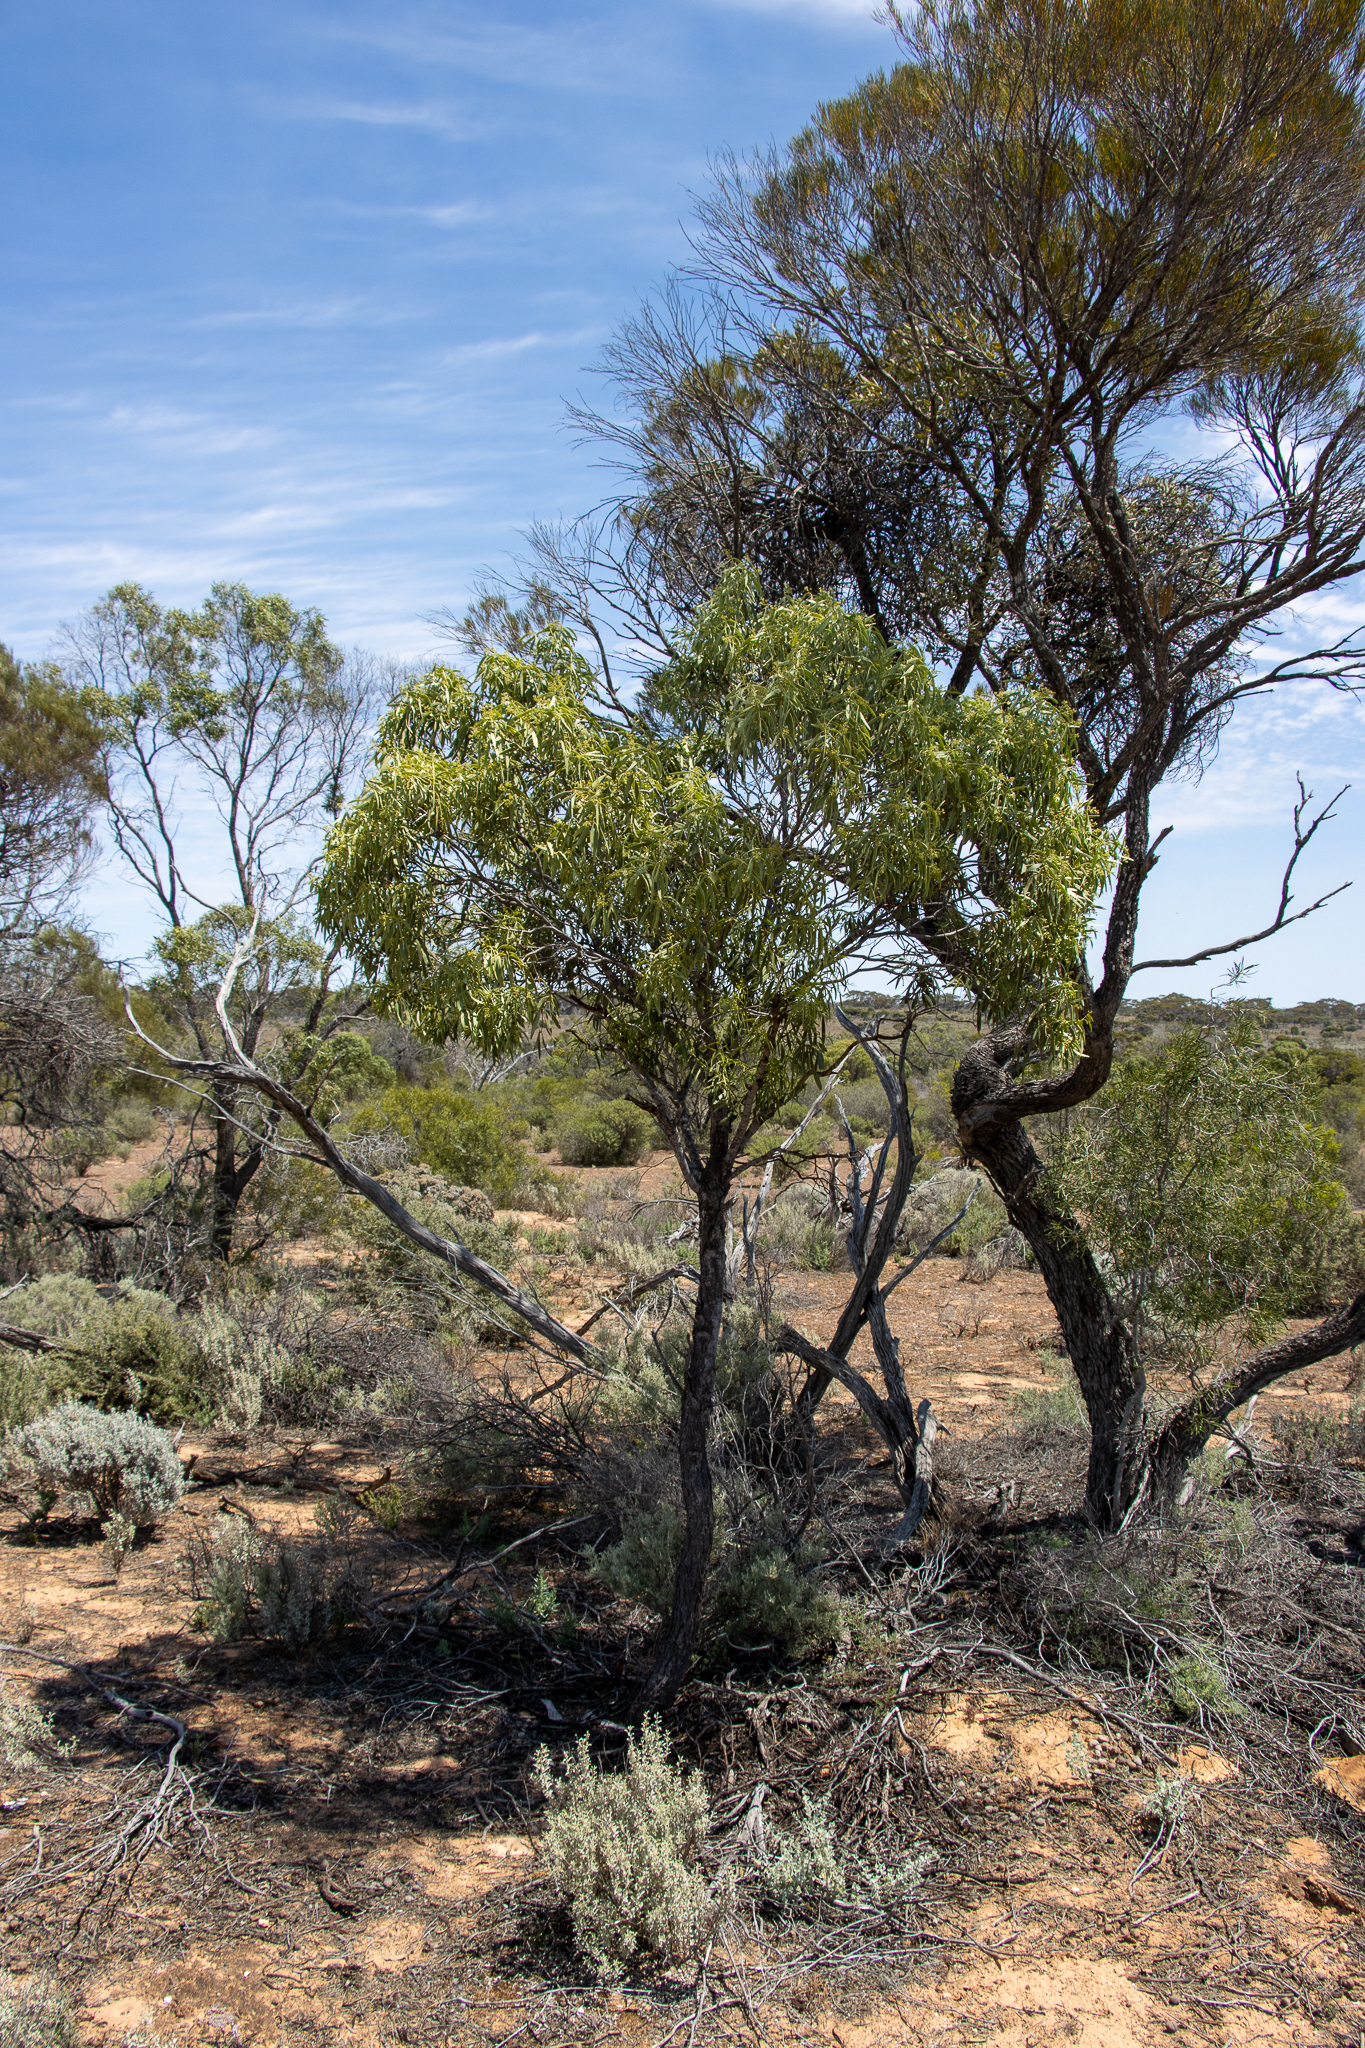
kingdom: Plantae
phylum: Tracheophyta
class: Magnoliopsida
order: Santalales
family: Santalaceae
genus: Santalum
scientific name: Santalum acuminatum
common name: Sweet quandong
